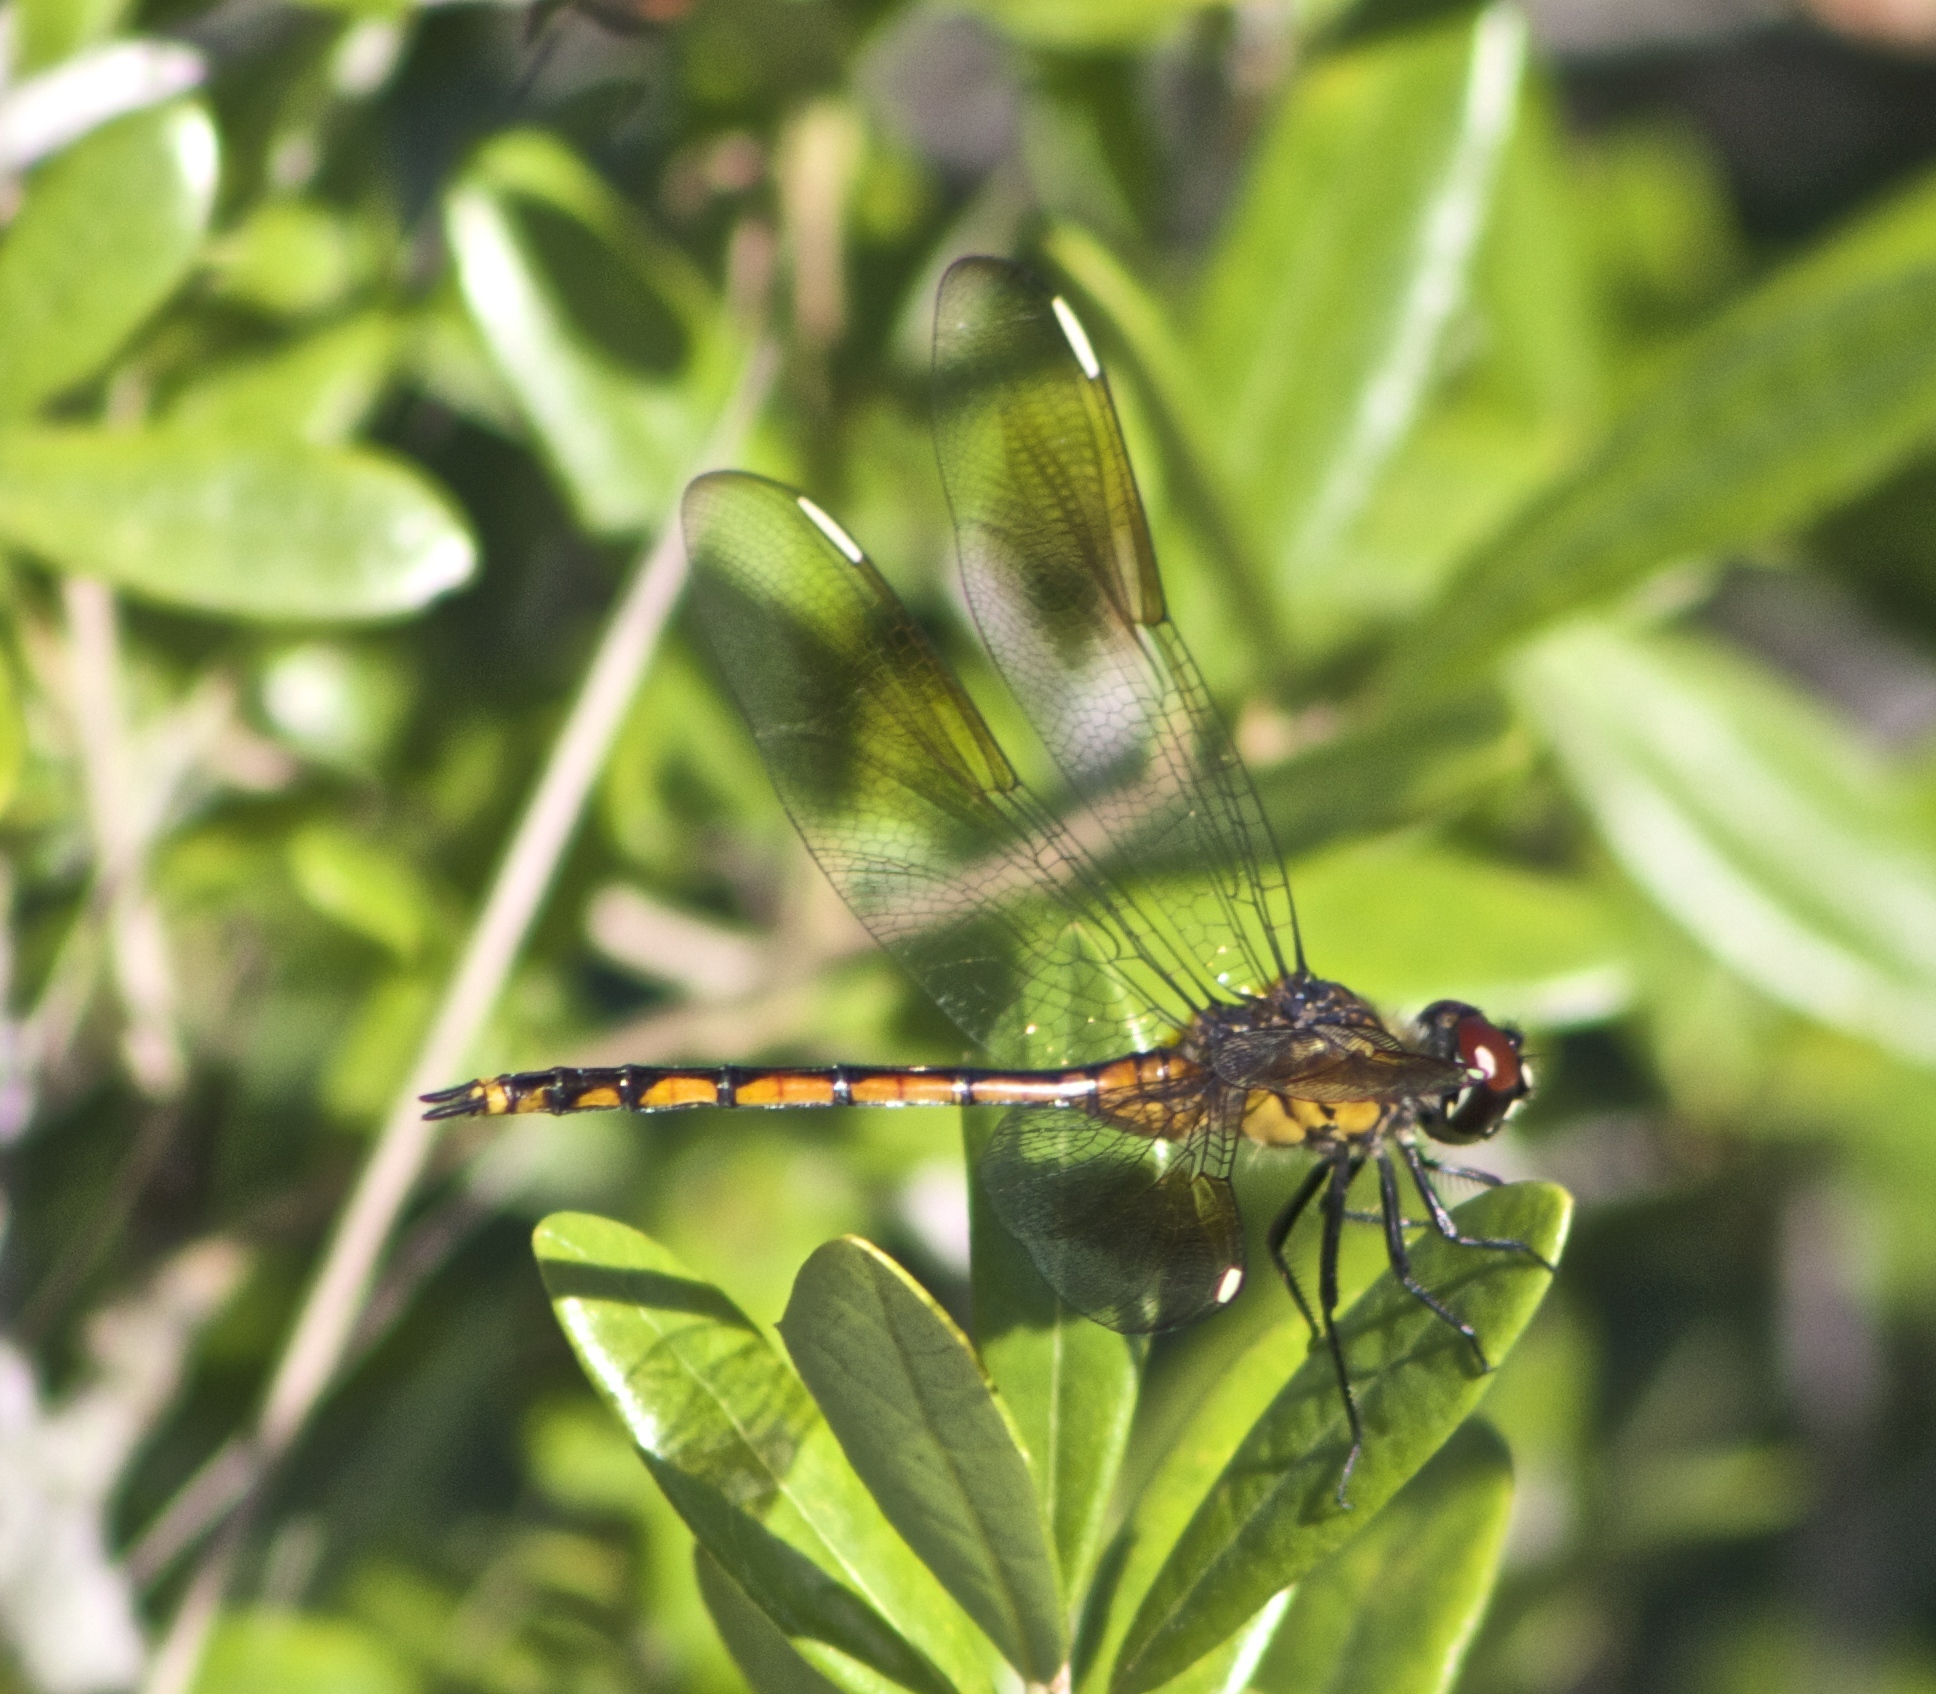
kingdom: Animalia
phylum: Arthropoda
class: Insecta
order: Odonata
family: Libellulidae
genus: Brachymesia
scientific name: Brachymesia gravida
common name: Four-spotted pennant
